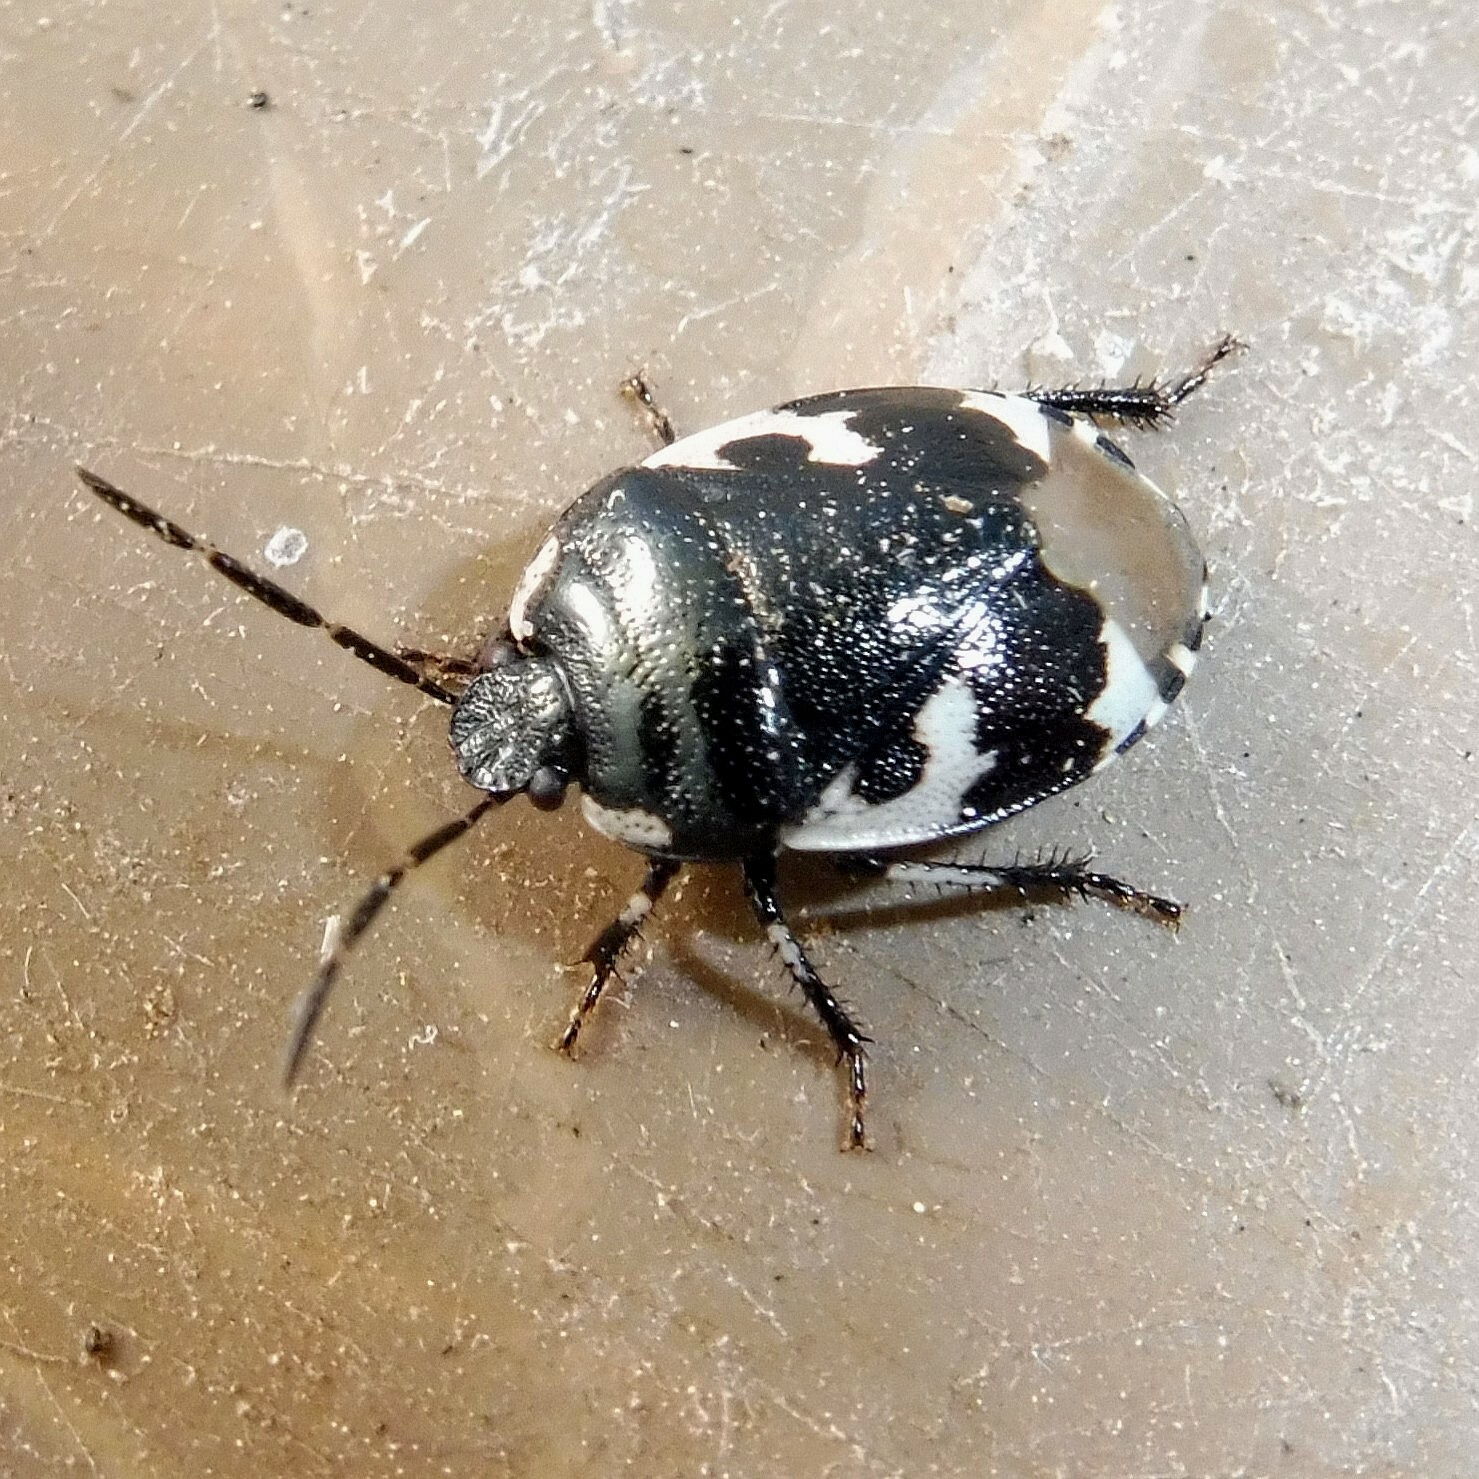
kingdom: Animalia
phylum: Arthropoda
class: Insecta
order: Hemiptera
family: Cydnidae
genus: Tritomegas
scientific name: Tritomegas bicolor
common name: Pied shieldbug
